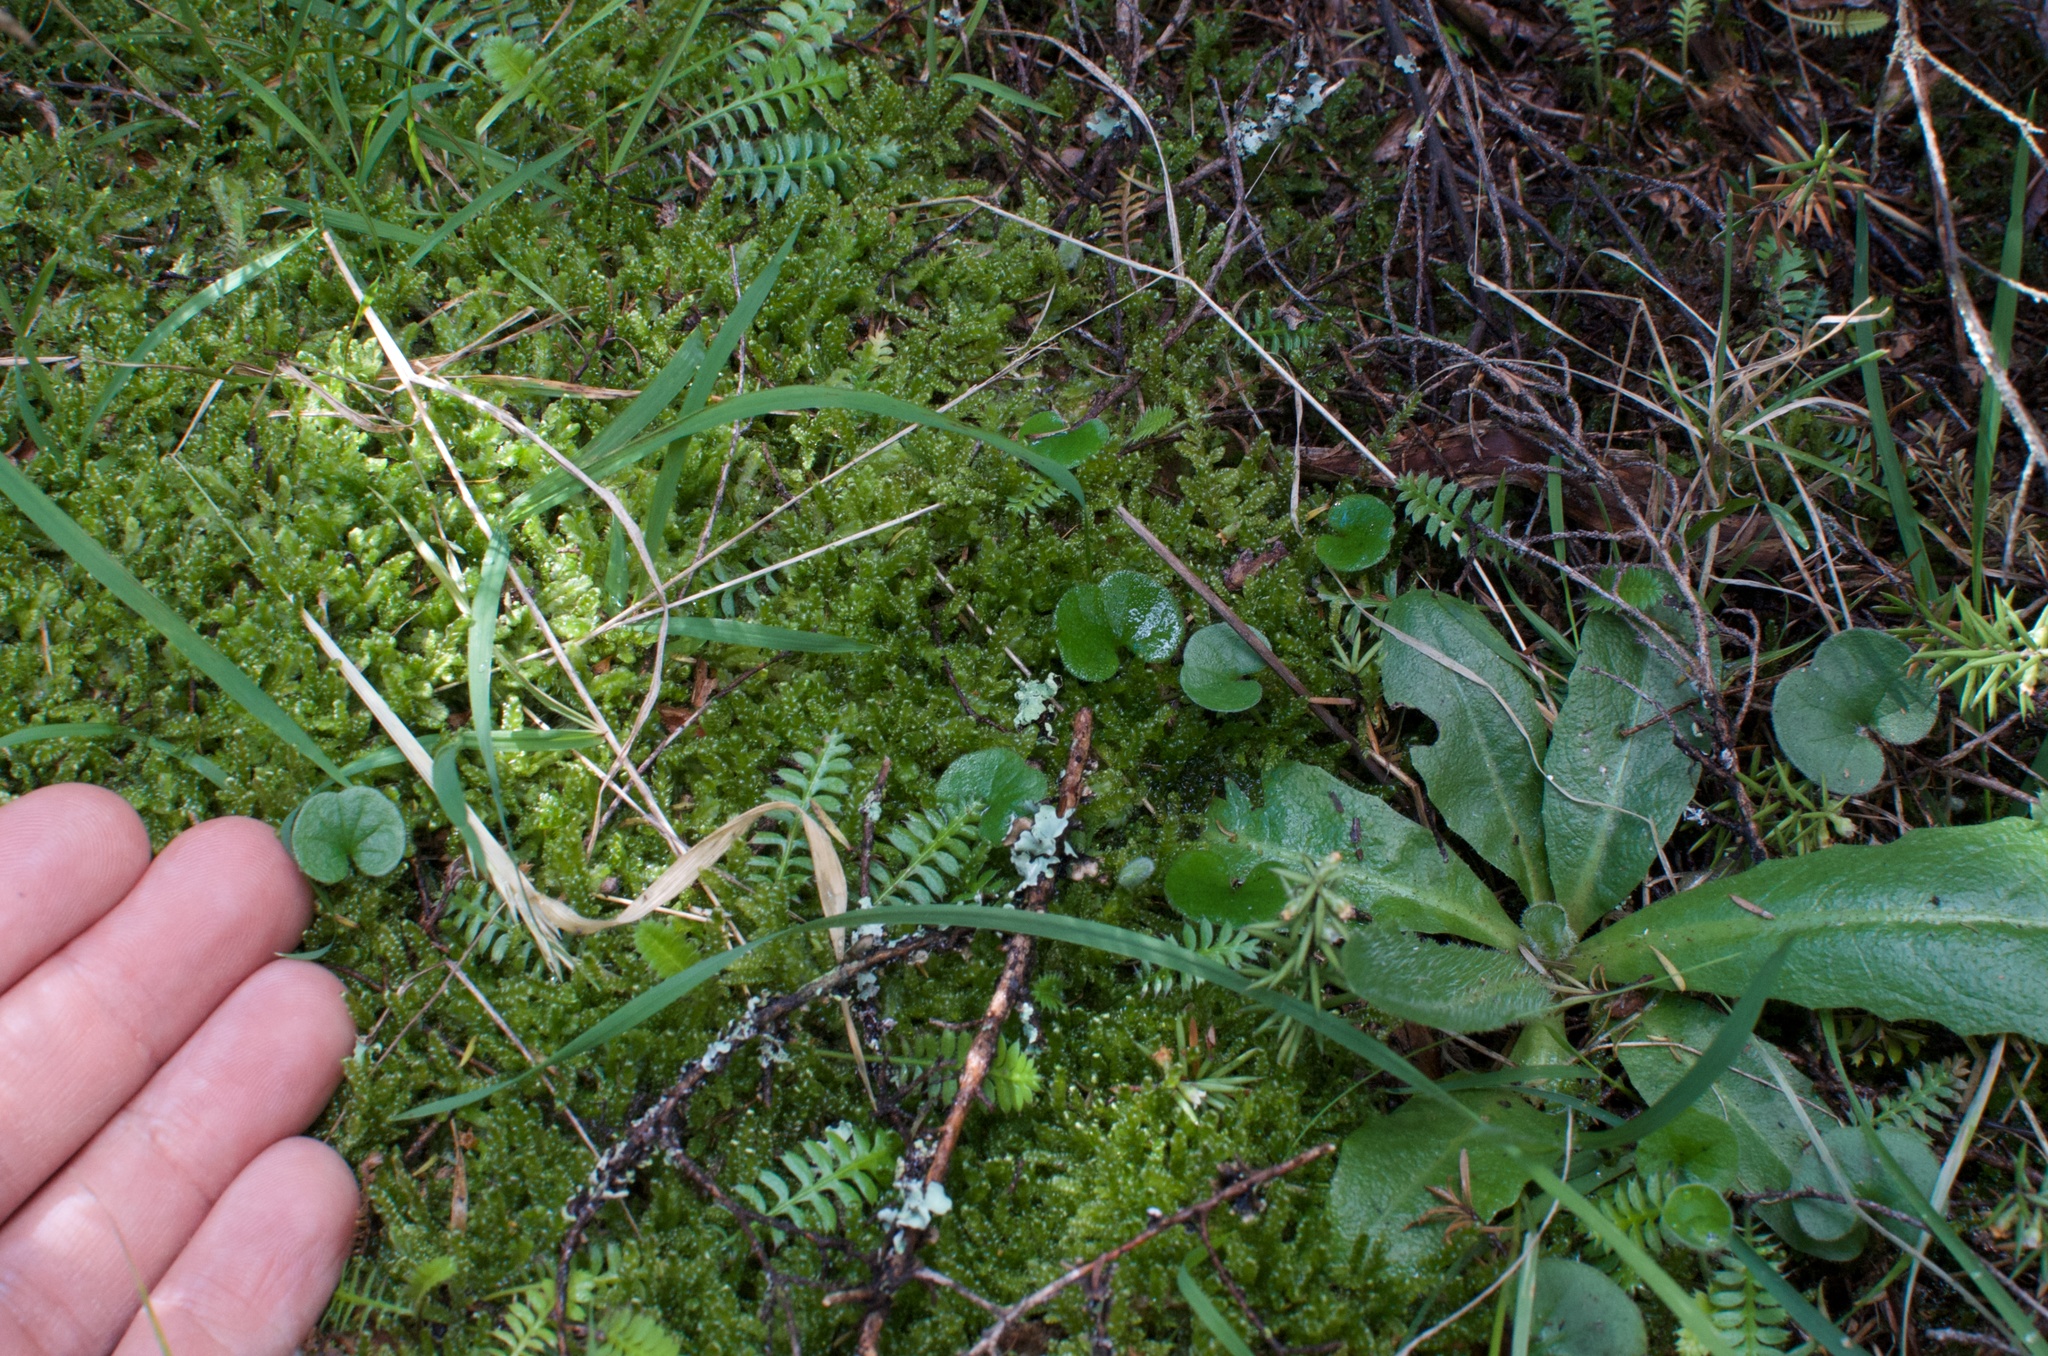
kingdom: Plantae
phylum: Tracheophyta
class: Magnoliopsida
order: Solanales
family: Convolvulaceae
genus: Dichondra
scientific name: Dichondra repens
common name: Kidneyweed
